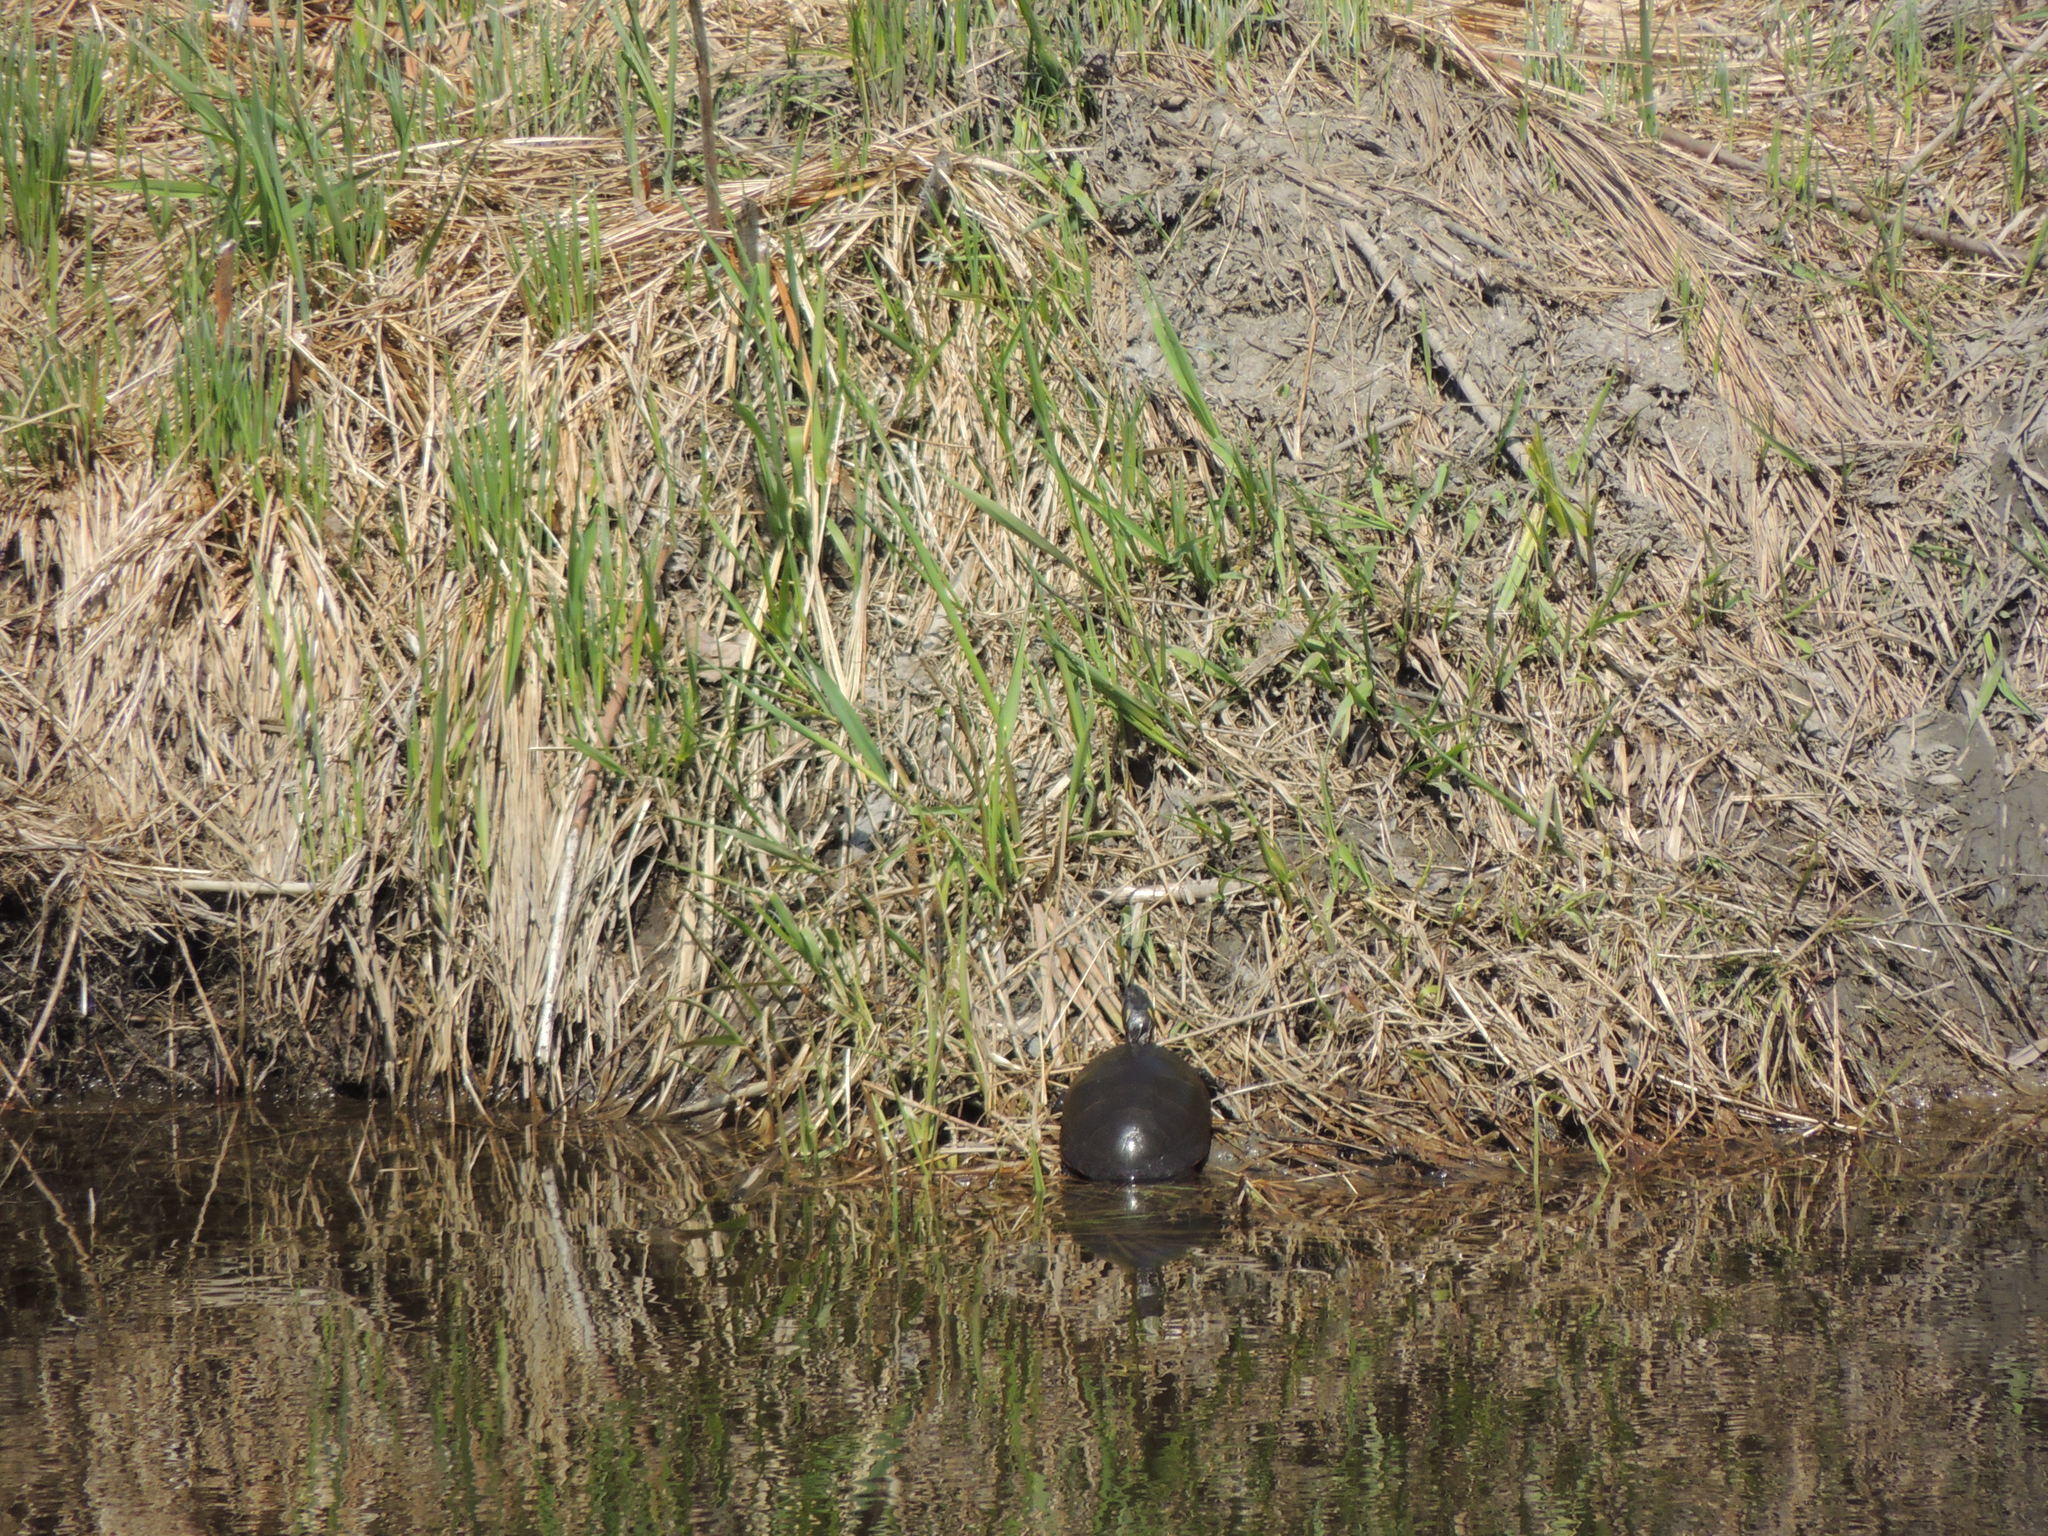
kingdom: Animalia
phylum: Chordata
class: Testudines
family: Emydidae
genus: Chrysemys
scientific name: Chrysemys picta
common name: Painted turtle
